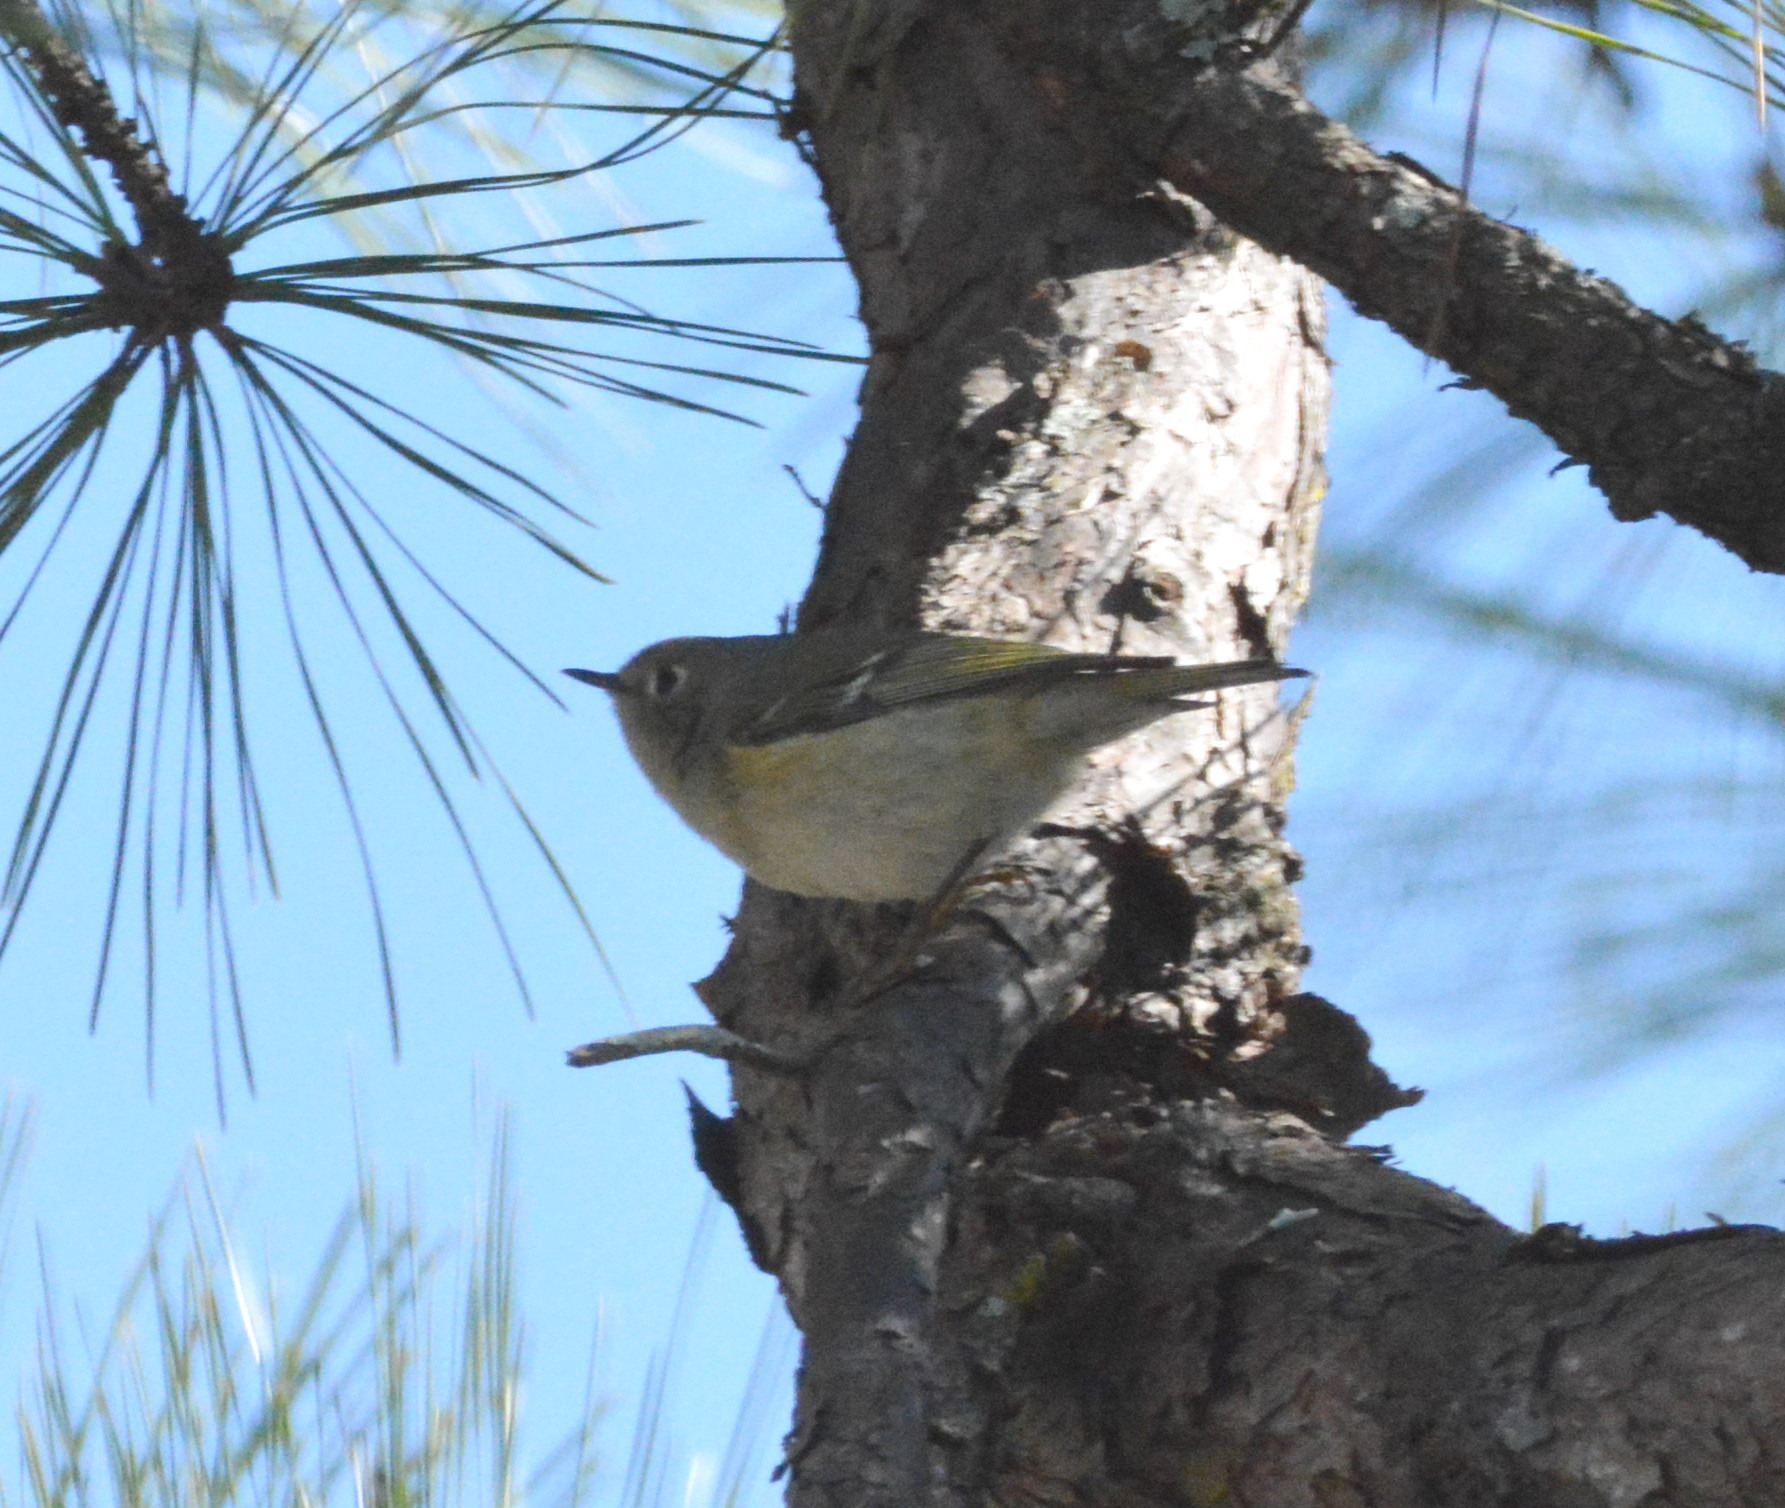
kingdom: Animalia
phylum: Chordata
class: Aves
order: Passeriformes
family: Regulidae
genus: Regulus
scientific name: Regulus calendula
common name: Ruby-crowned kinglet
